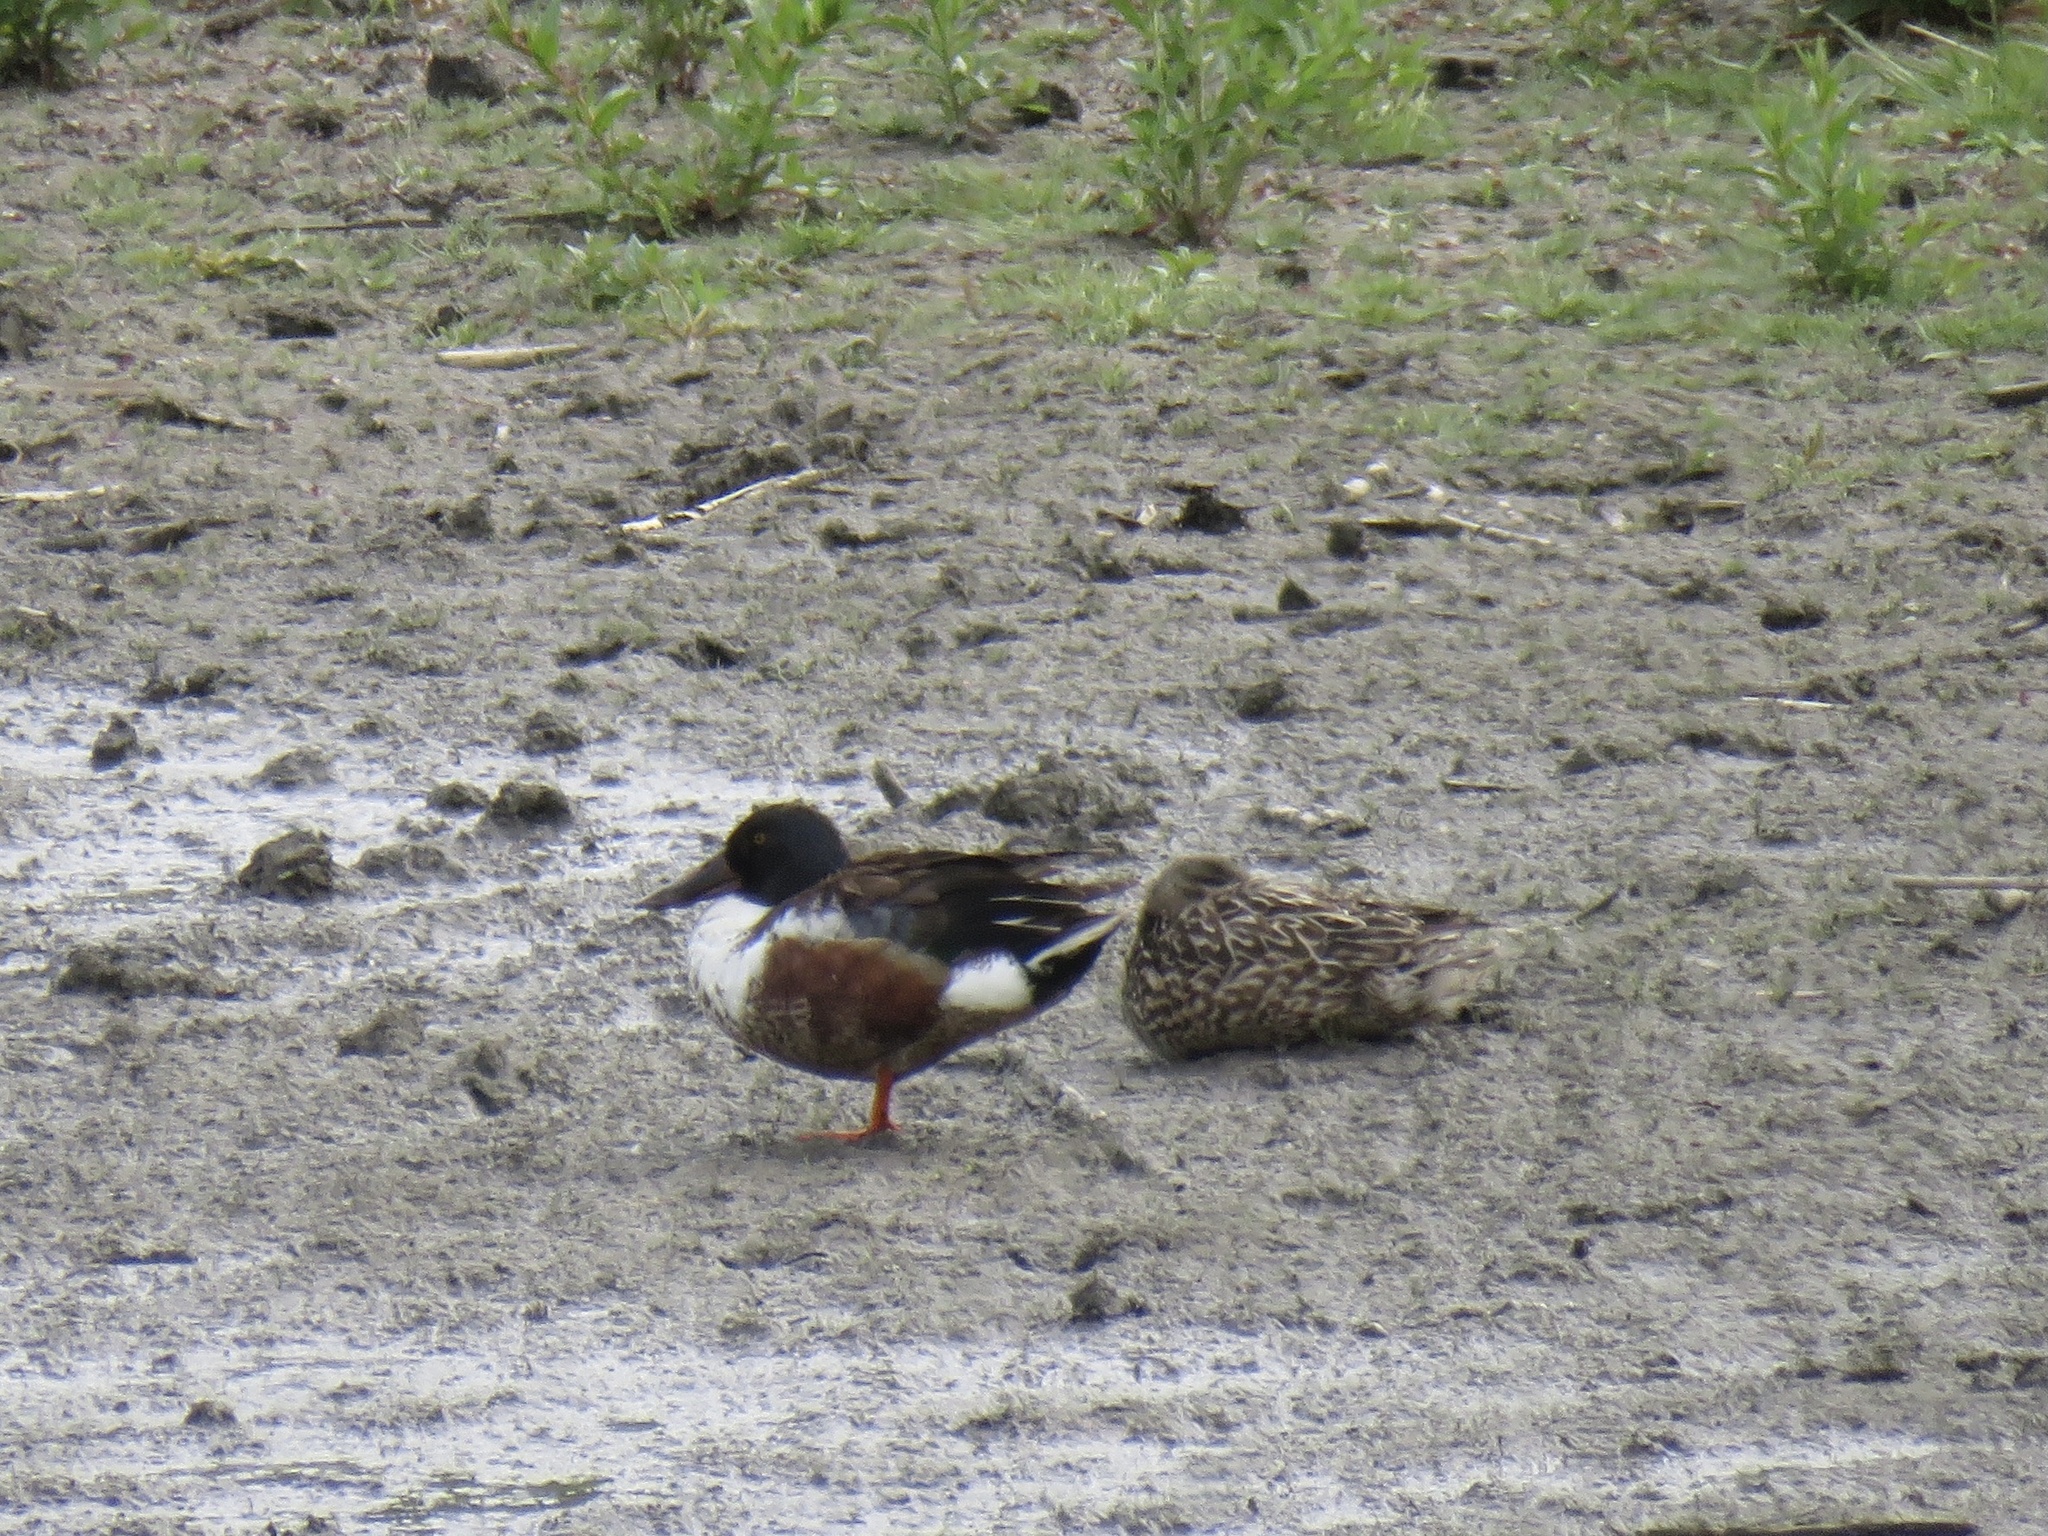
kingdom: Animalia
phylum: Chordata
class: Aves
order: Anseriformes
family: Anatidae
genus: Spatula
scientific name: Spatula clypeata
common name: Northern shoveler
